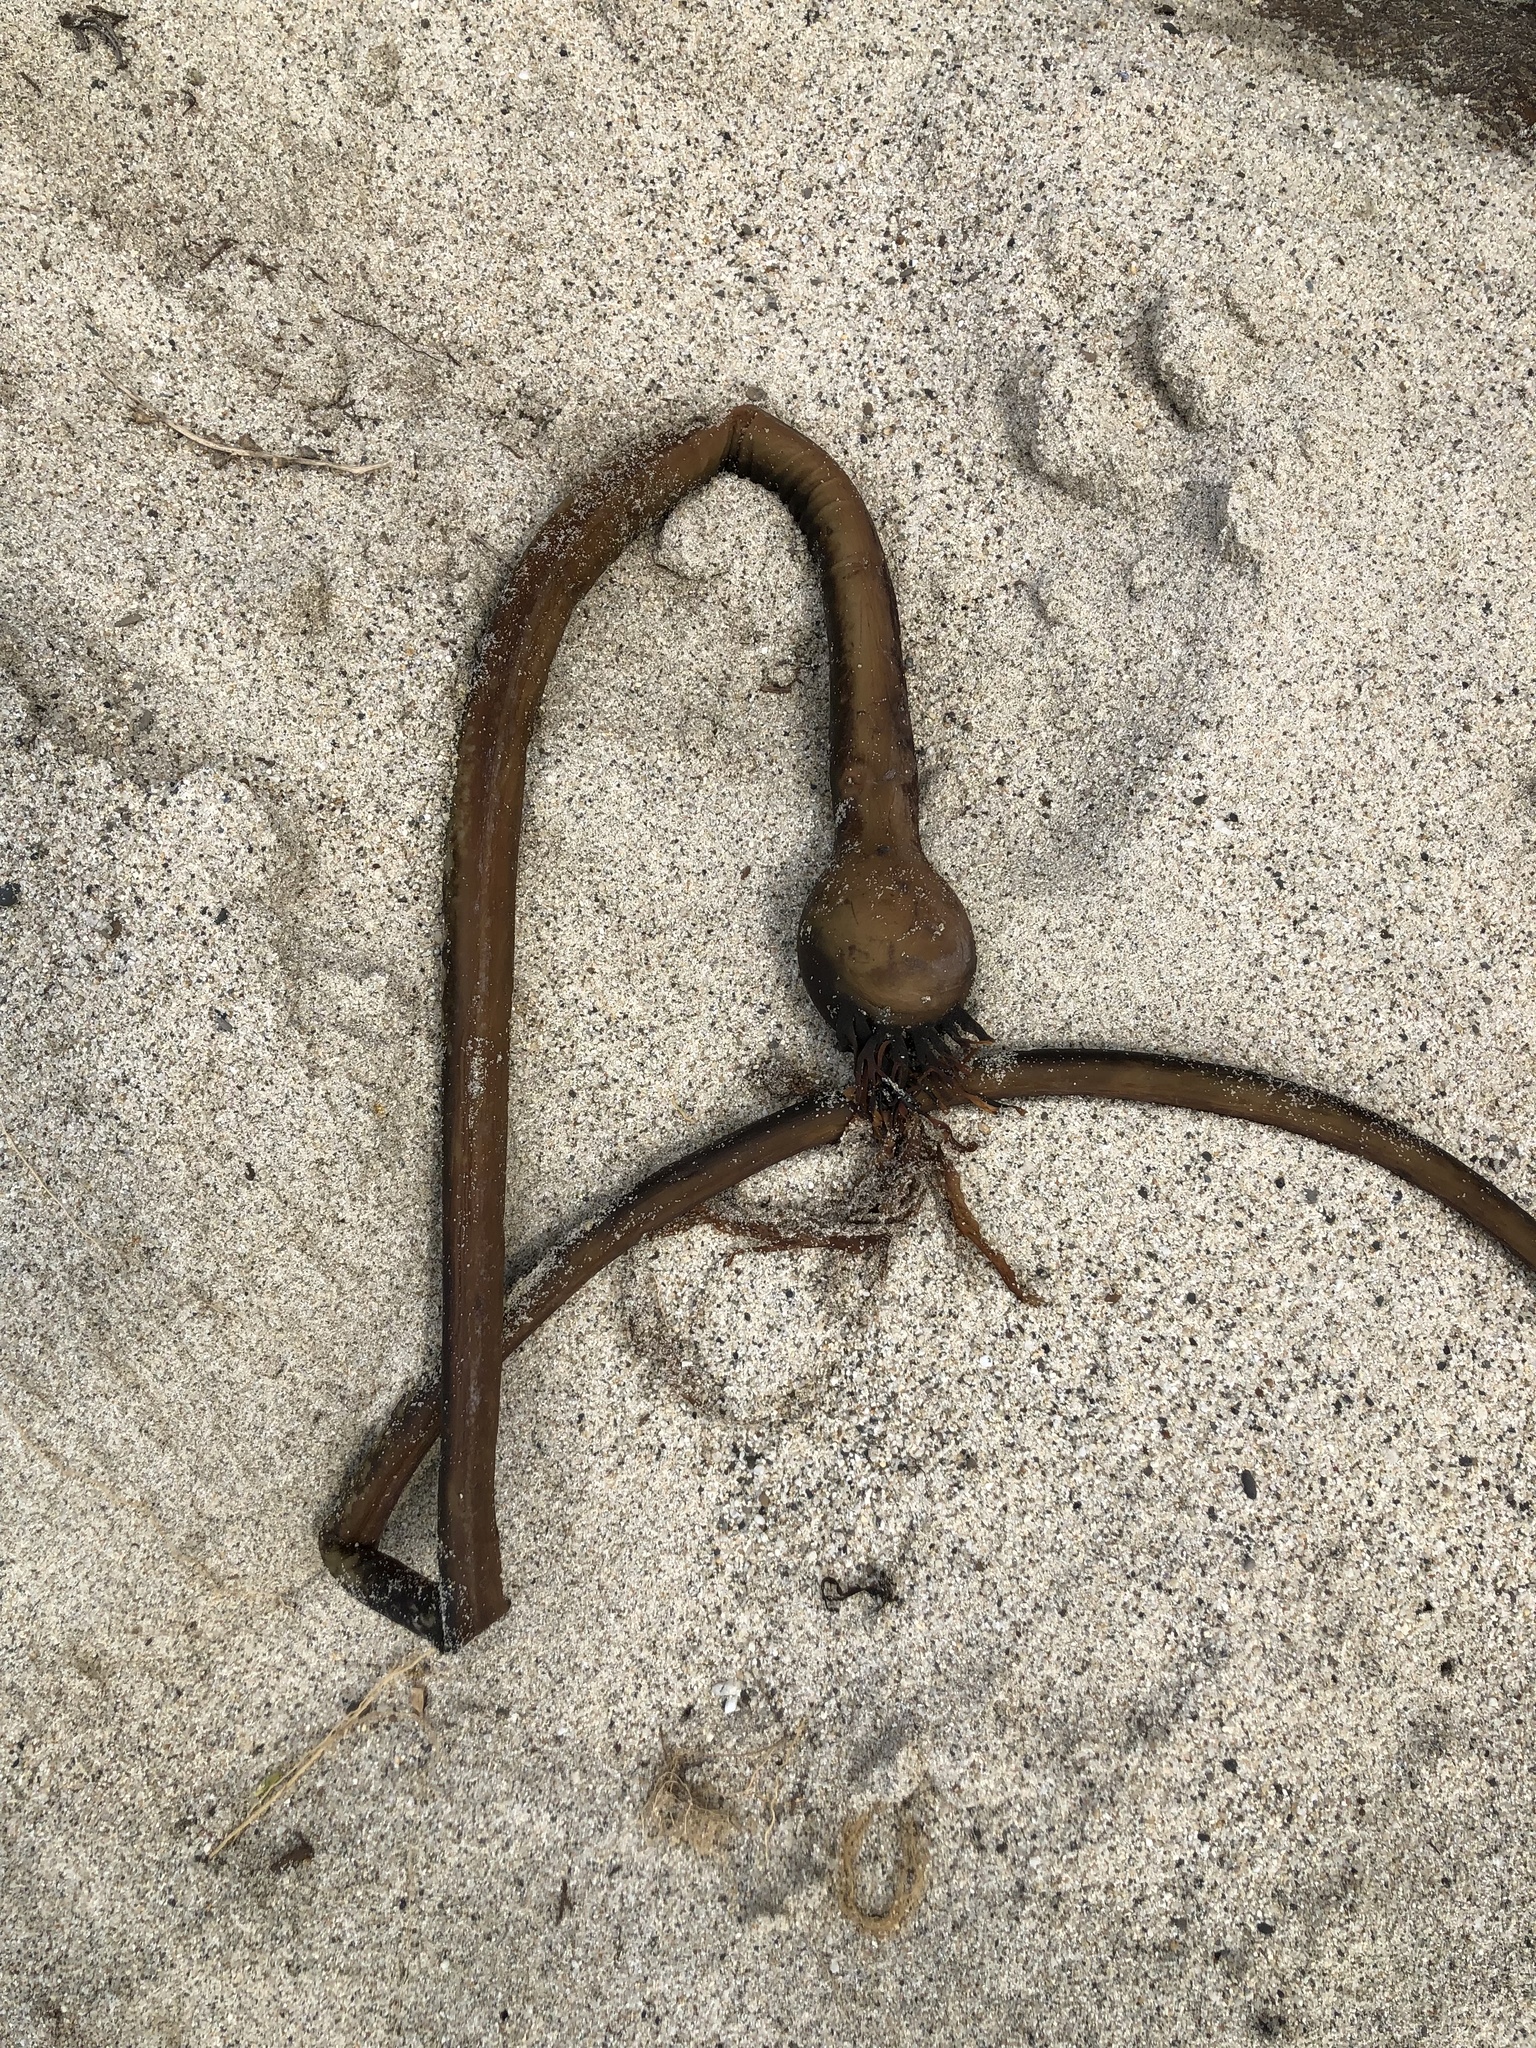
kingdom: Chromista
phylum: Ochrophyta
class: Phaeophyceae
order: Laminariales
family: Laminariaceae
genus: Nereocystis
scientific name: Nereocystis luetkeana
